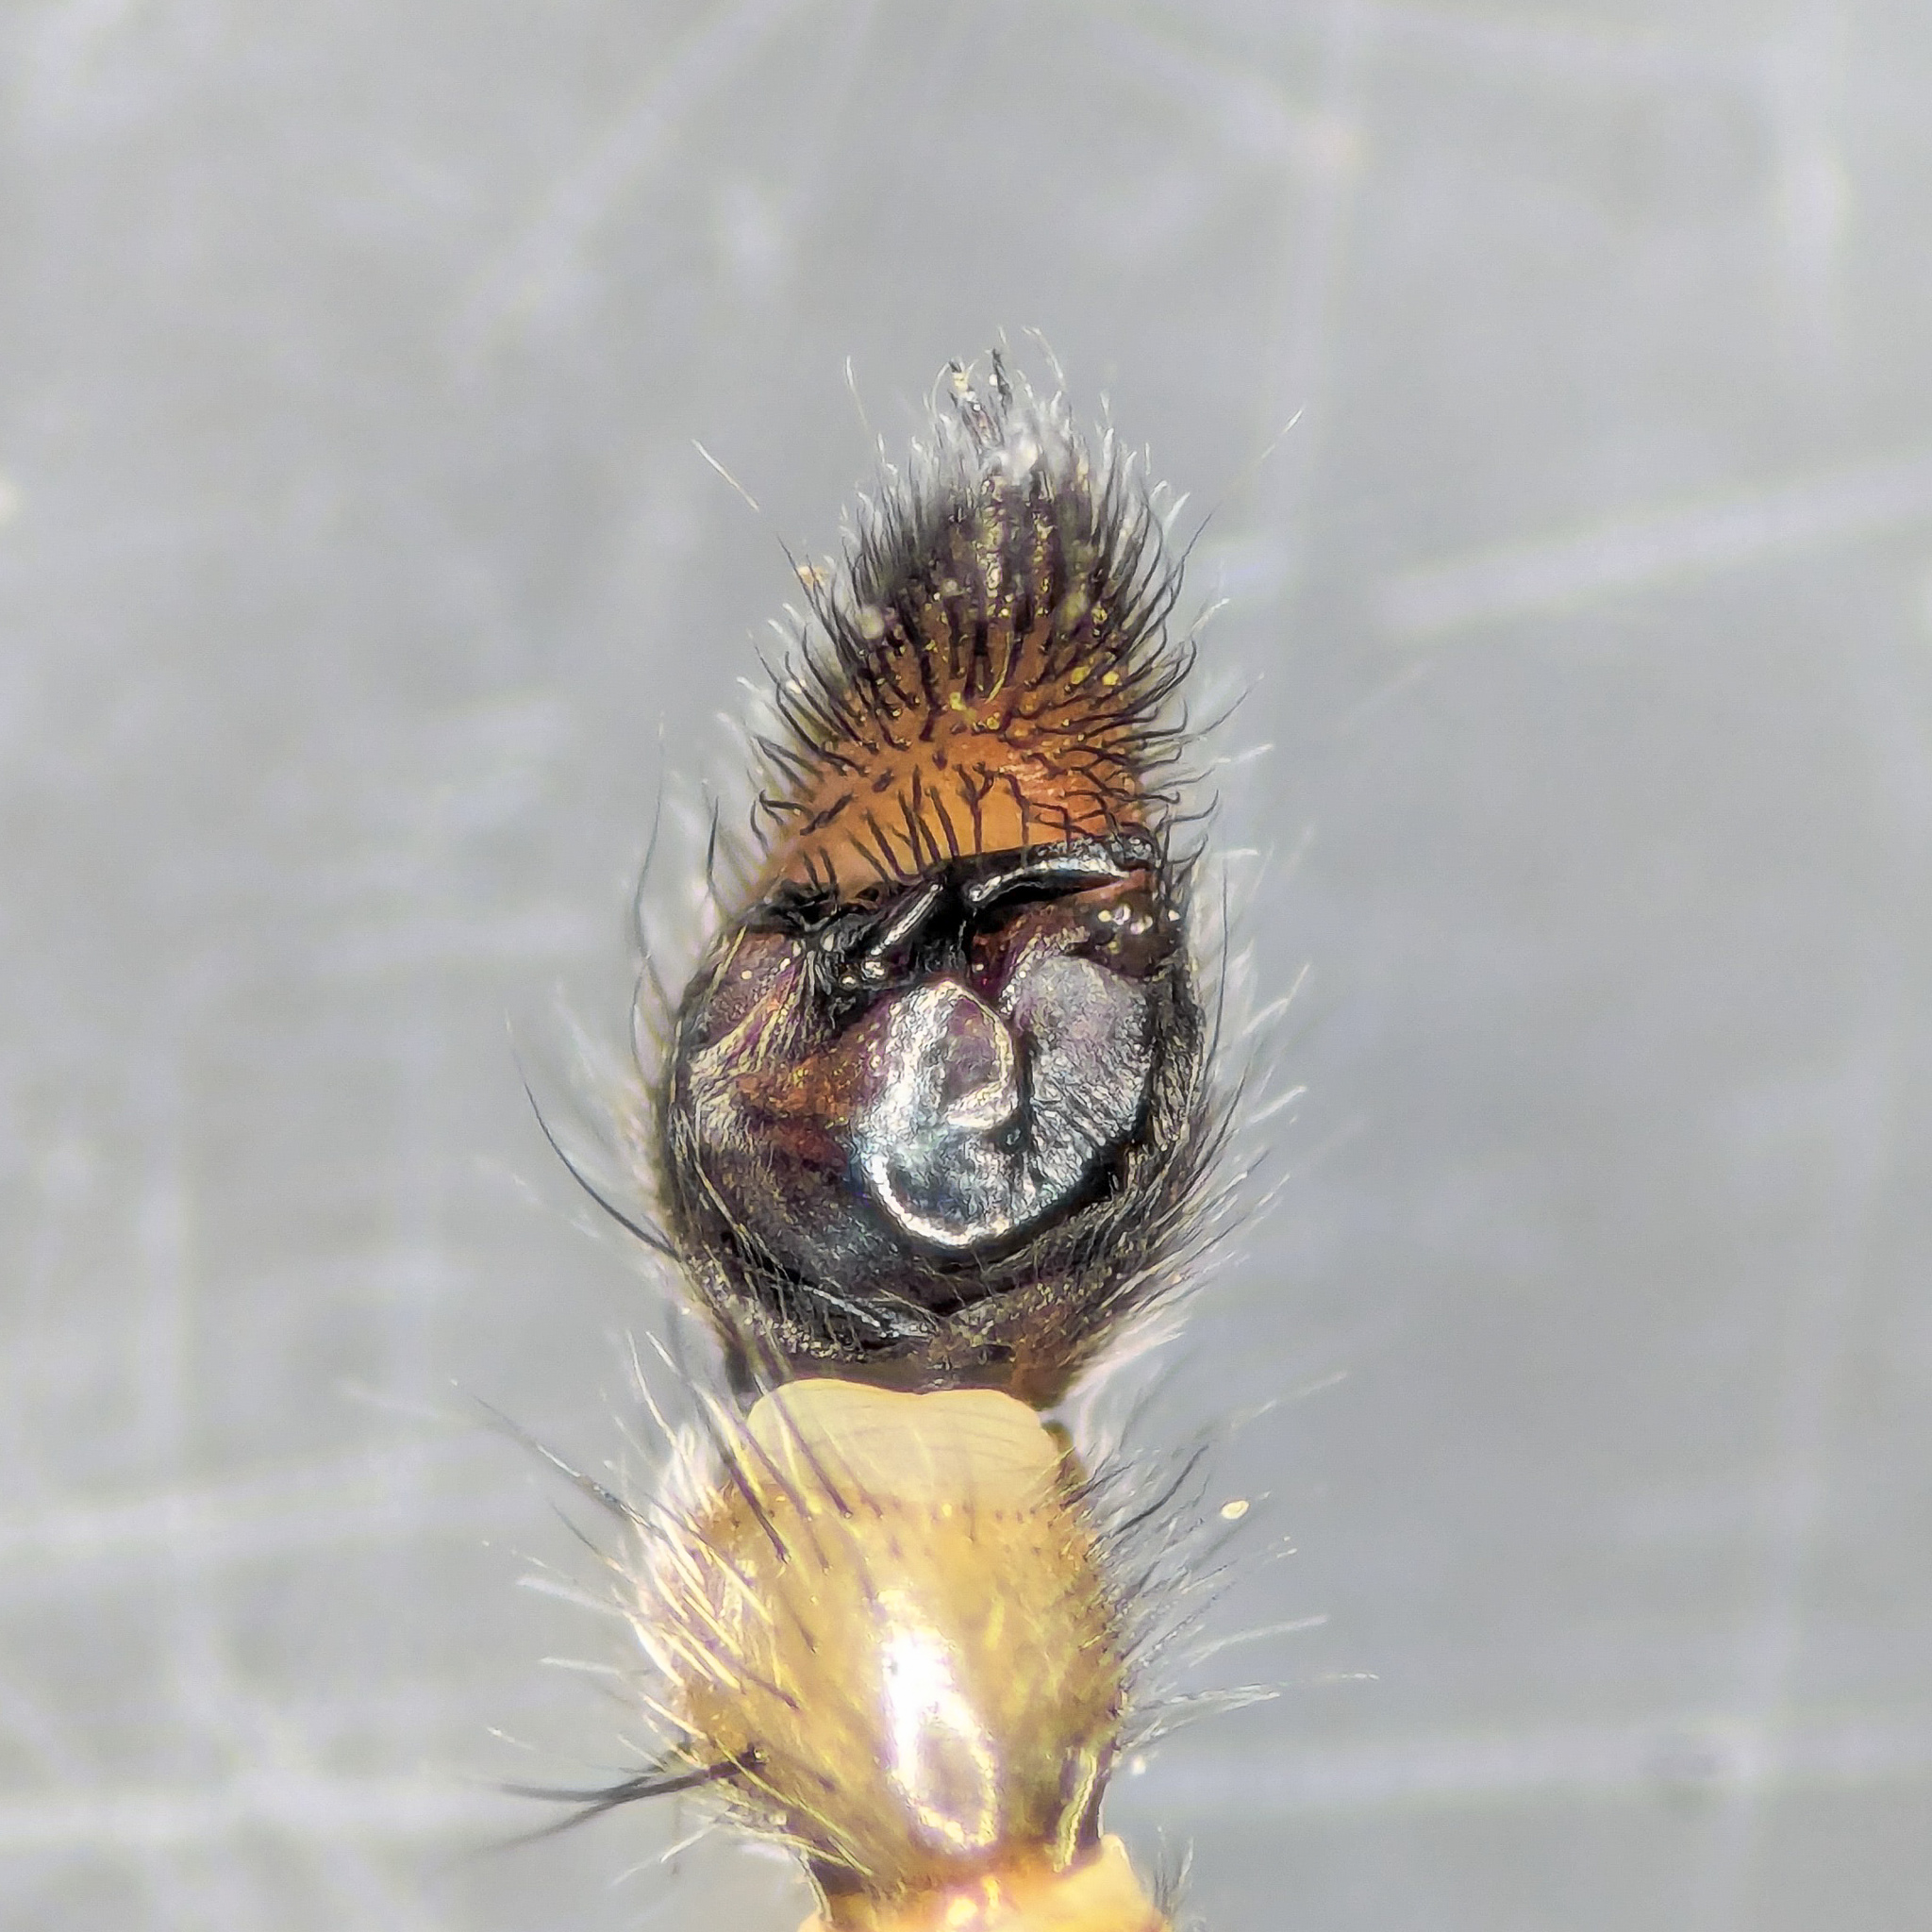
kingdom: Animalia
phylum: Arthropoda
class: Arachnida
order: Araneae
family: Lycosidae
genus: Anoteropsis
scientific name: Anoteropsis hilaris
